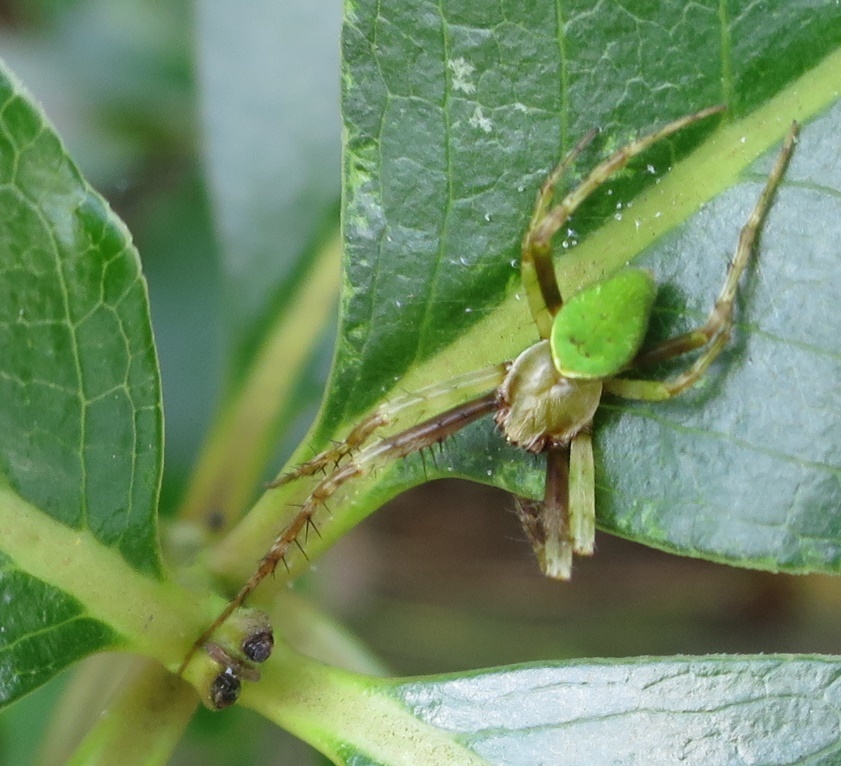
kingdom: Animalia
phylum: Arthropoda
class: Arachnida
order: Araneae
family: Araneidae
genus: Colaranea
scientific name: Colaranea viriditas
